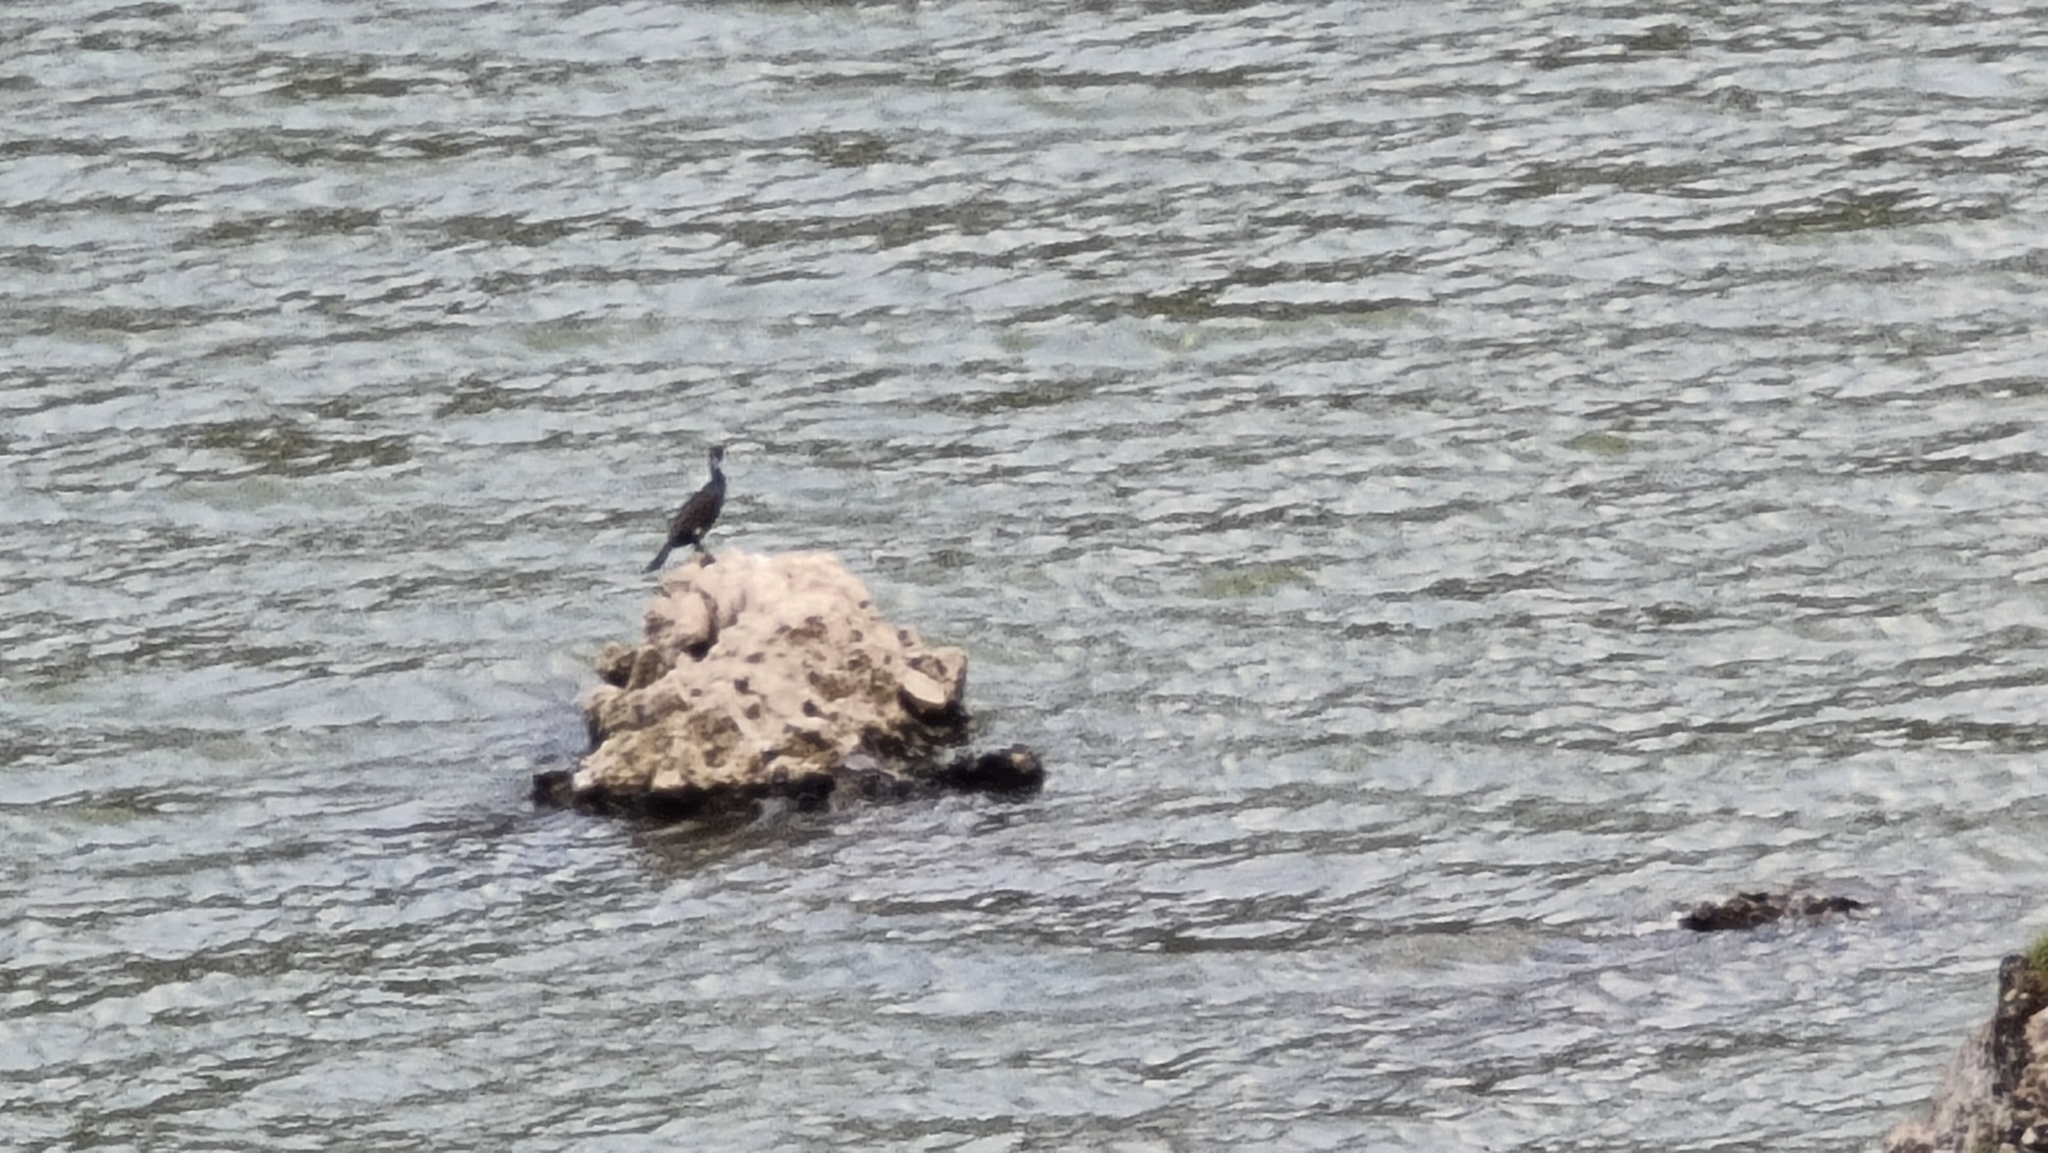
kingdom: Animalia
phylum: Chordata
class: Aves
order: Suliformes
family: Phalacrocoracidae
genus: Phalacrocorax
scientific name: Phalacrocorax carbo
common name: Great cormorant
